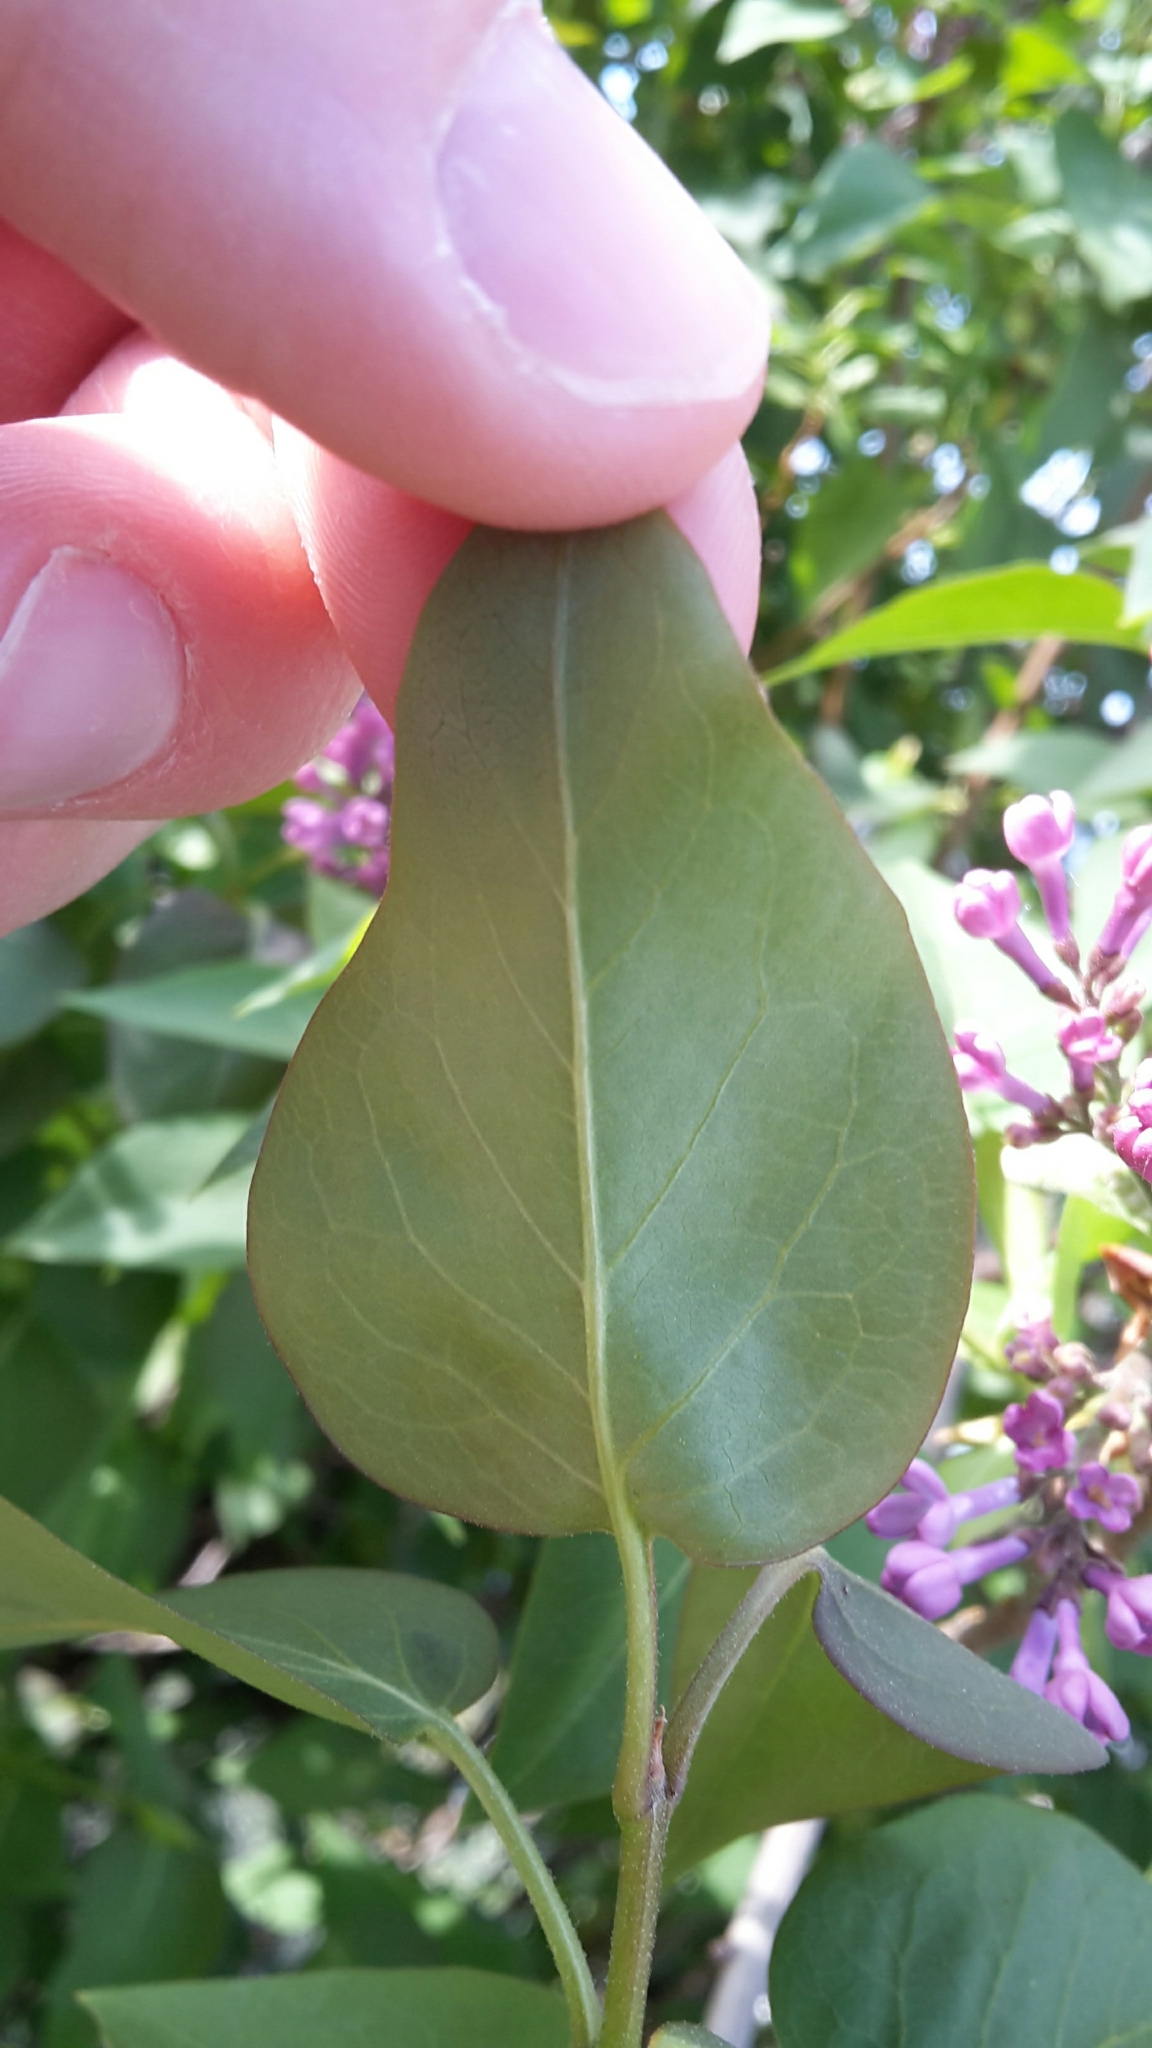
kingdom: Plantae
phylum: Tracheophyta
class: Magnoliopsida
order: Lamiales
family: Oleaceae
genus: Syringa
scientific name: Syringa vulgaris
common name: Common lilac
